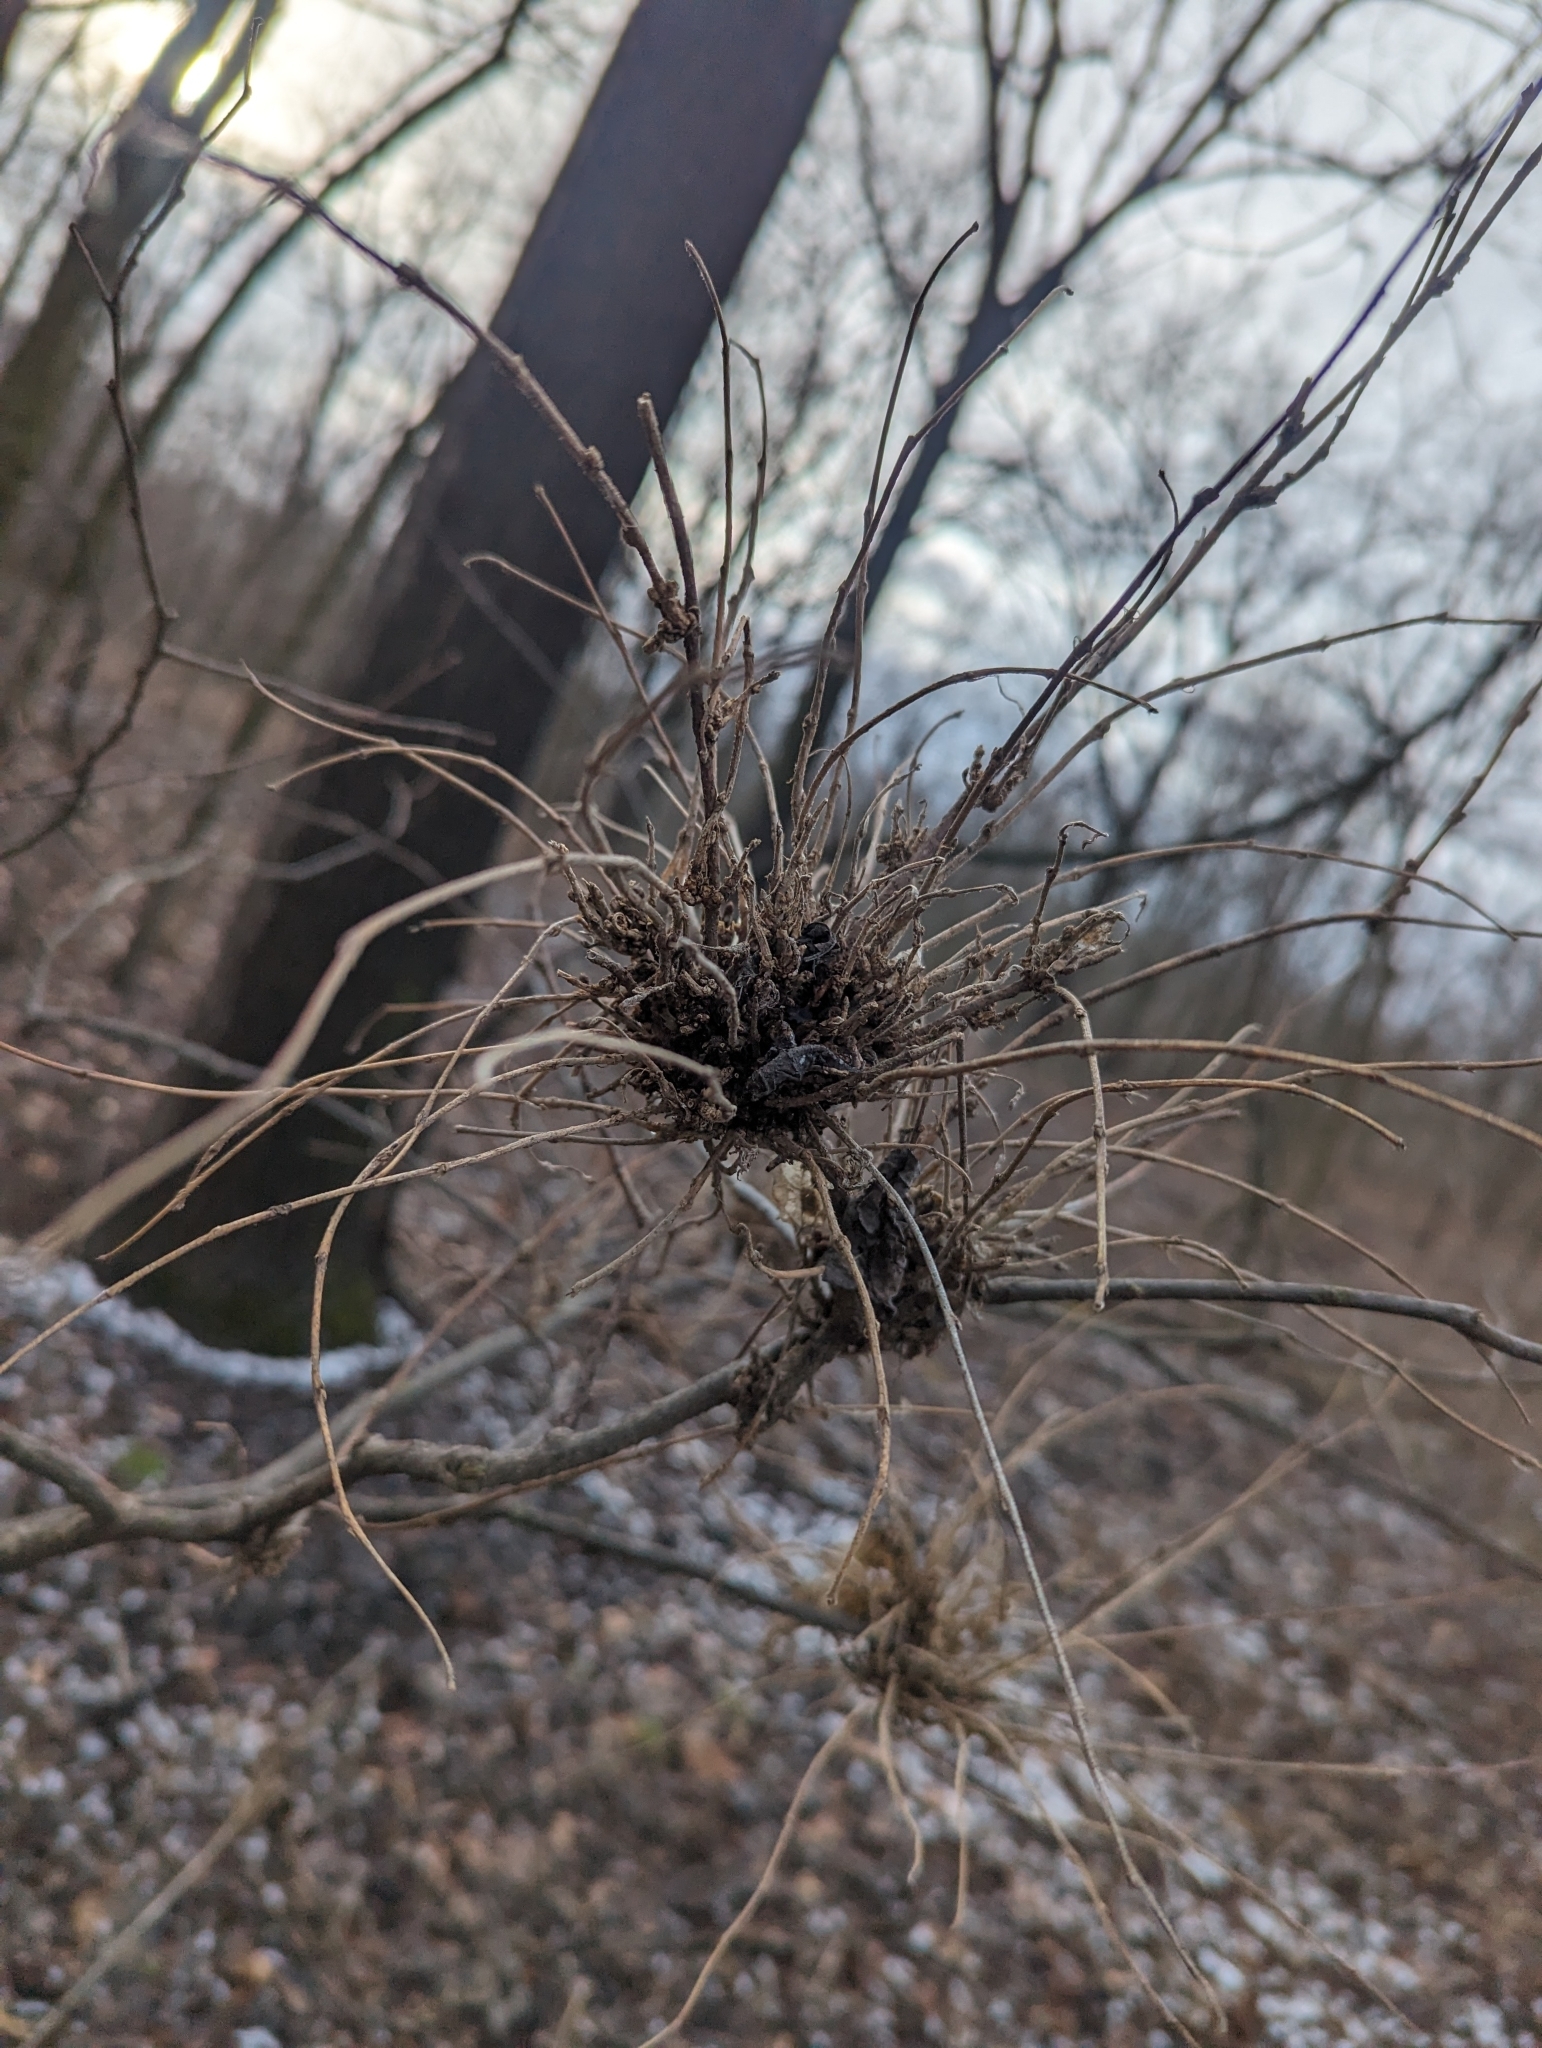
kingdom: Animalia
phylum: Arthropoda
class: Arachnida
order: Trombidiformes
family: Eriophyidae
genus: Aceria
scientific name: Aceria
